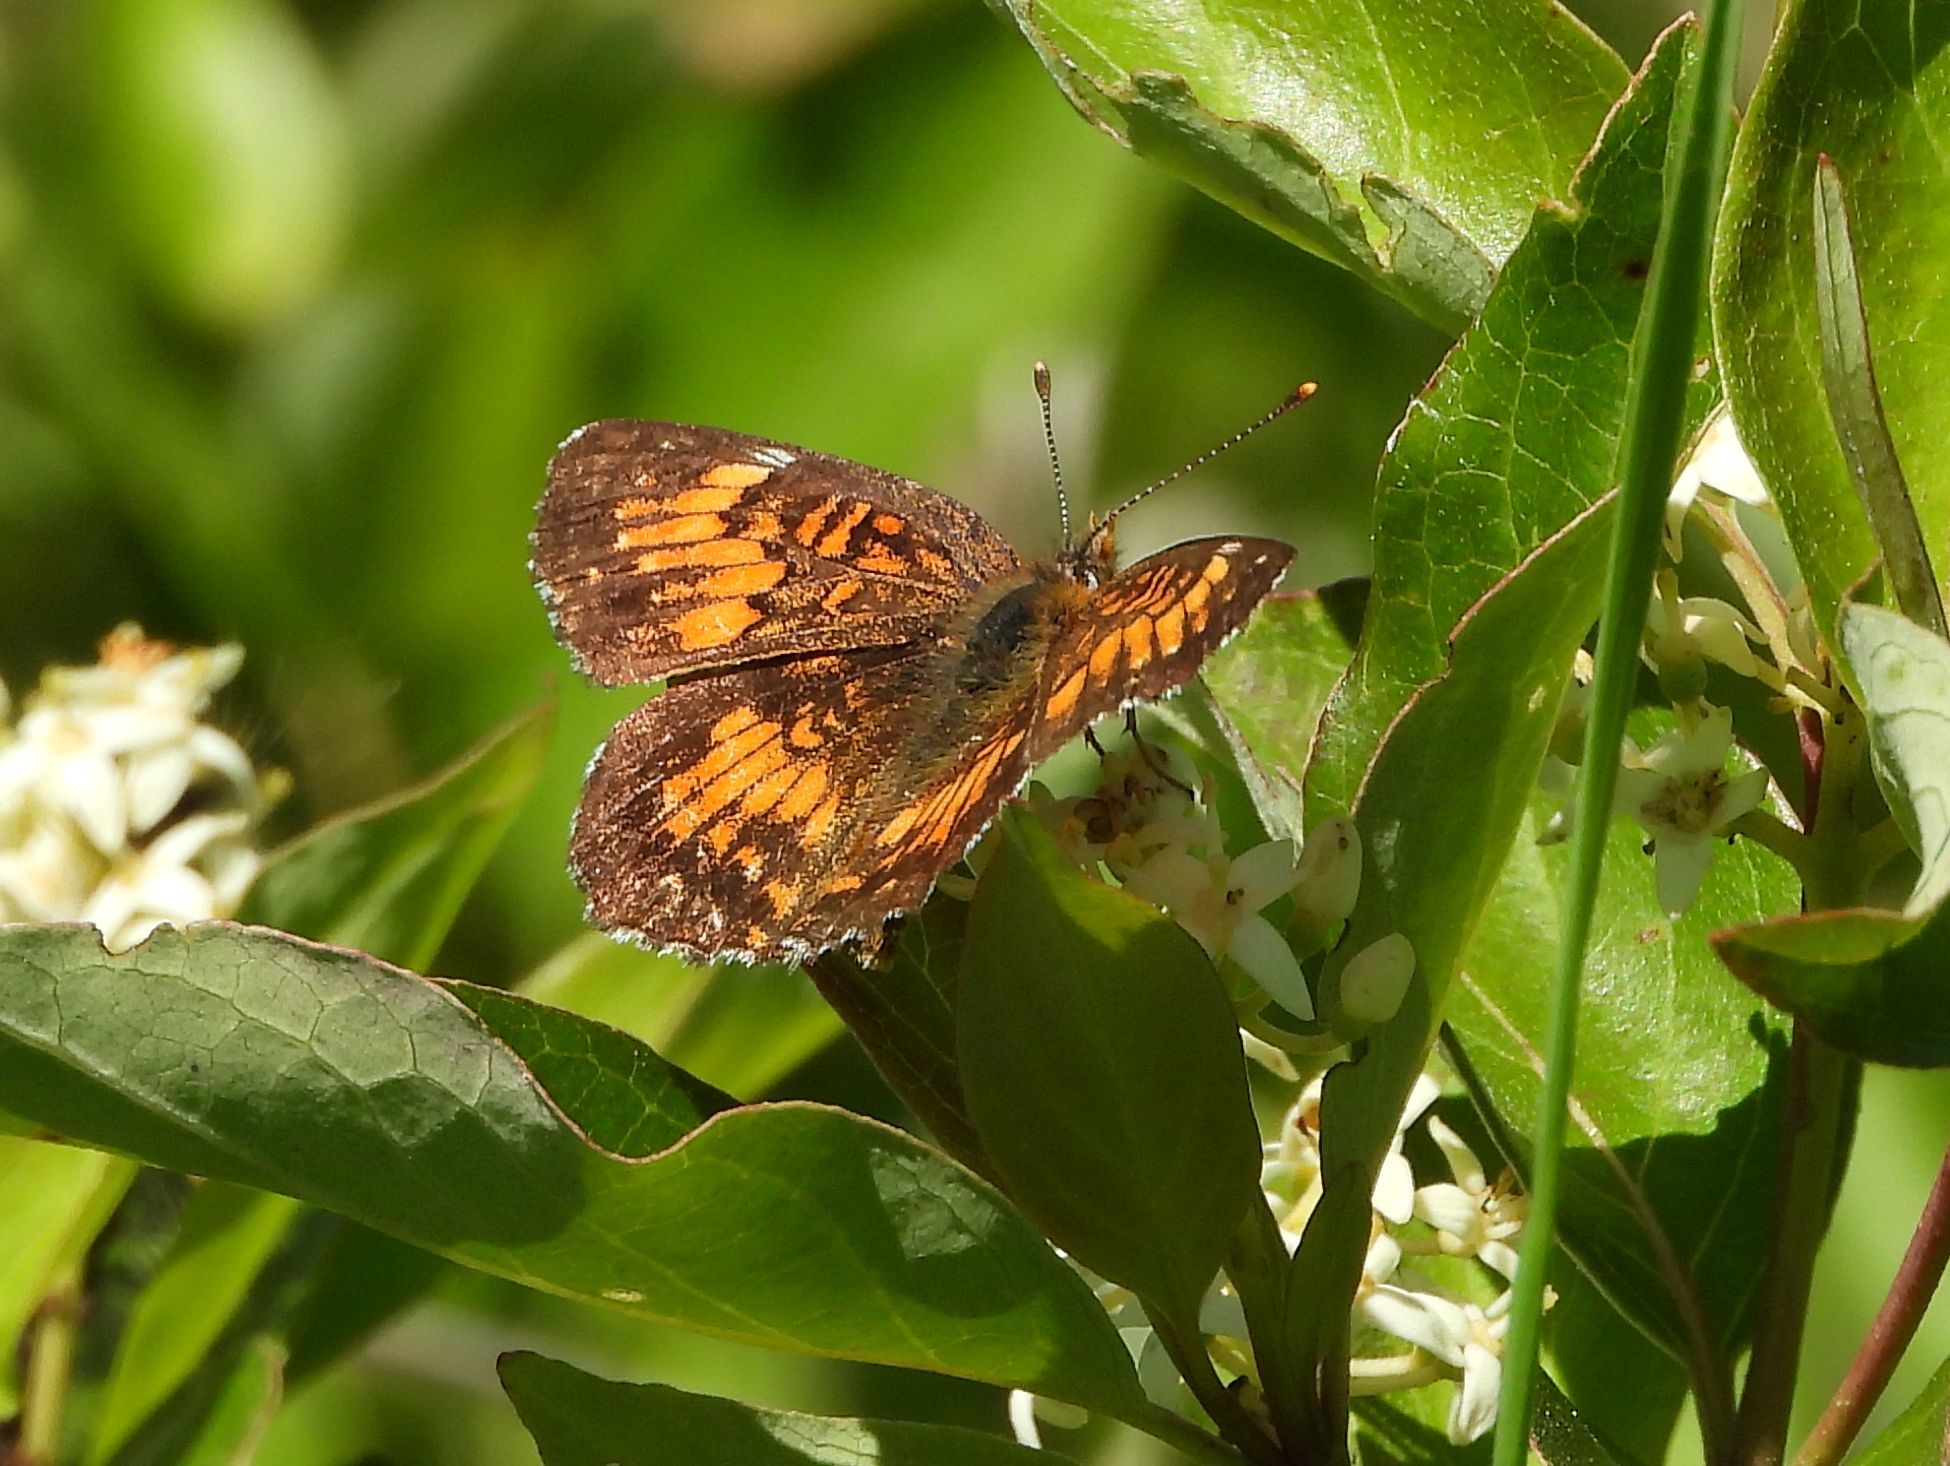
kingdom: Animalia
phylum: Arthropoda
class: Insecta
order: Lepidoptera
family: Nymphalidae
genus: Chlosyne
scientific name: Chlosyne harrisii
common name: Harris's checkerspot
